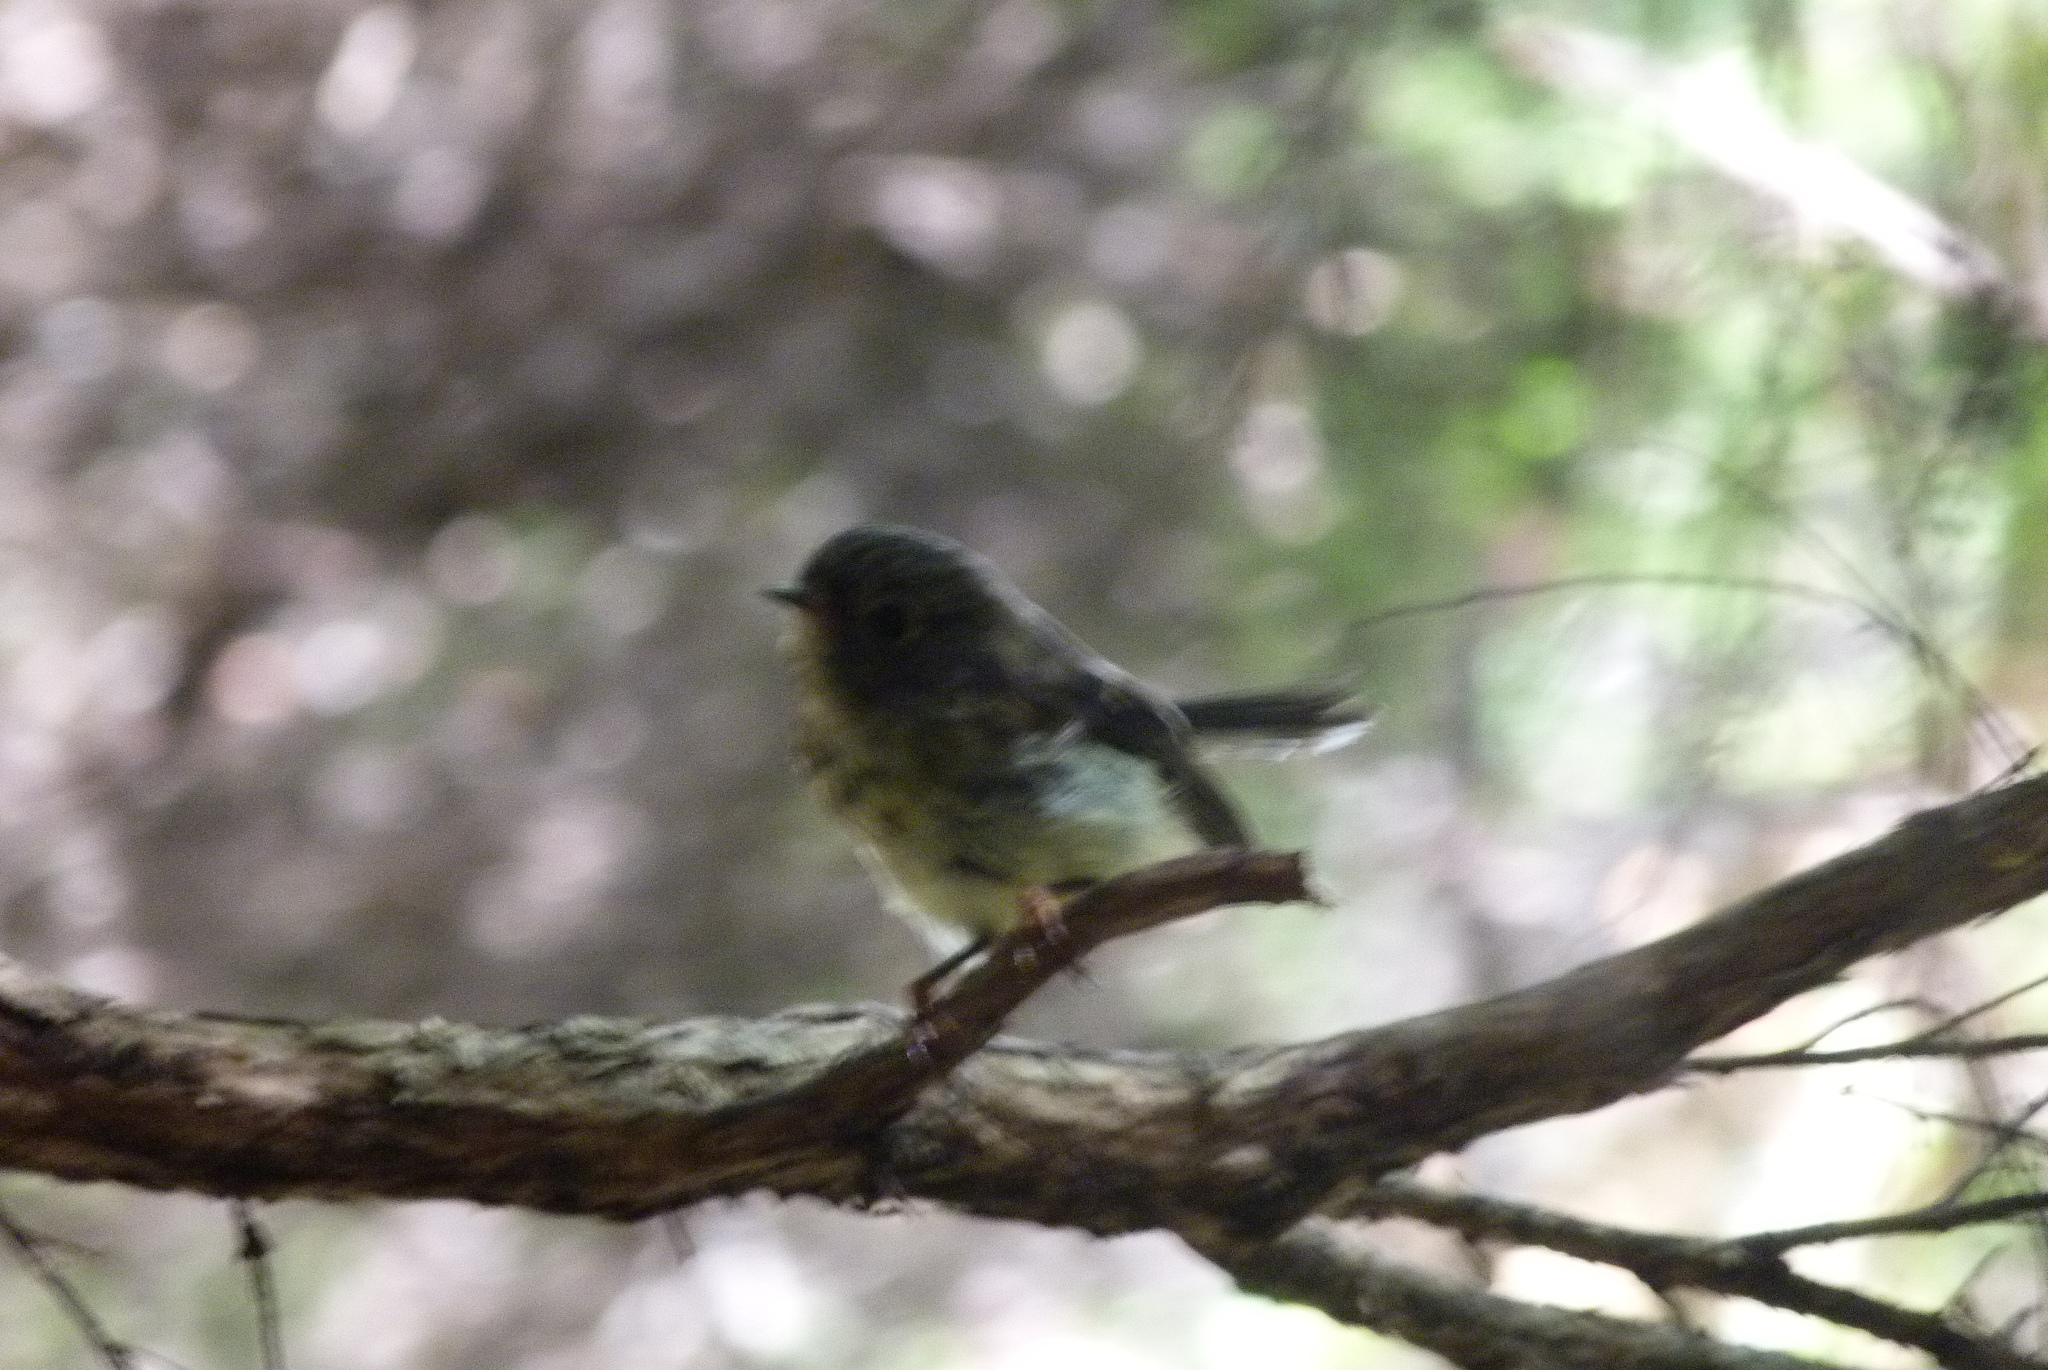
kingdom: Animalia
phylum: Chordata
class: Aves
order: Passeriformes
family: Petroicidae
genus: Petroica
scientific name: Petroica macrocephala
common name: Tomtit
